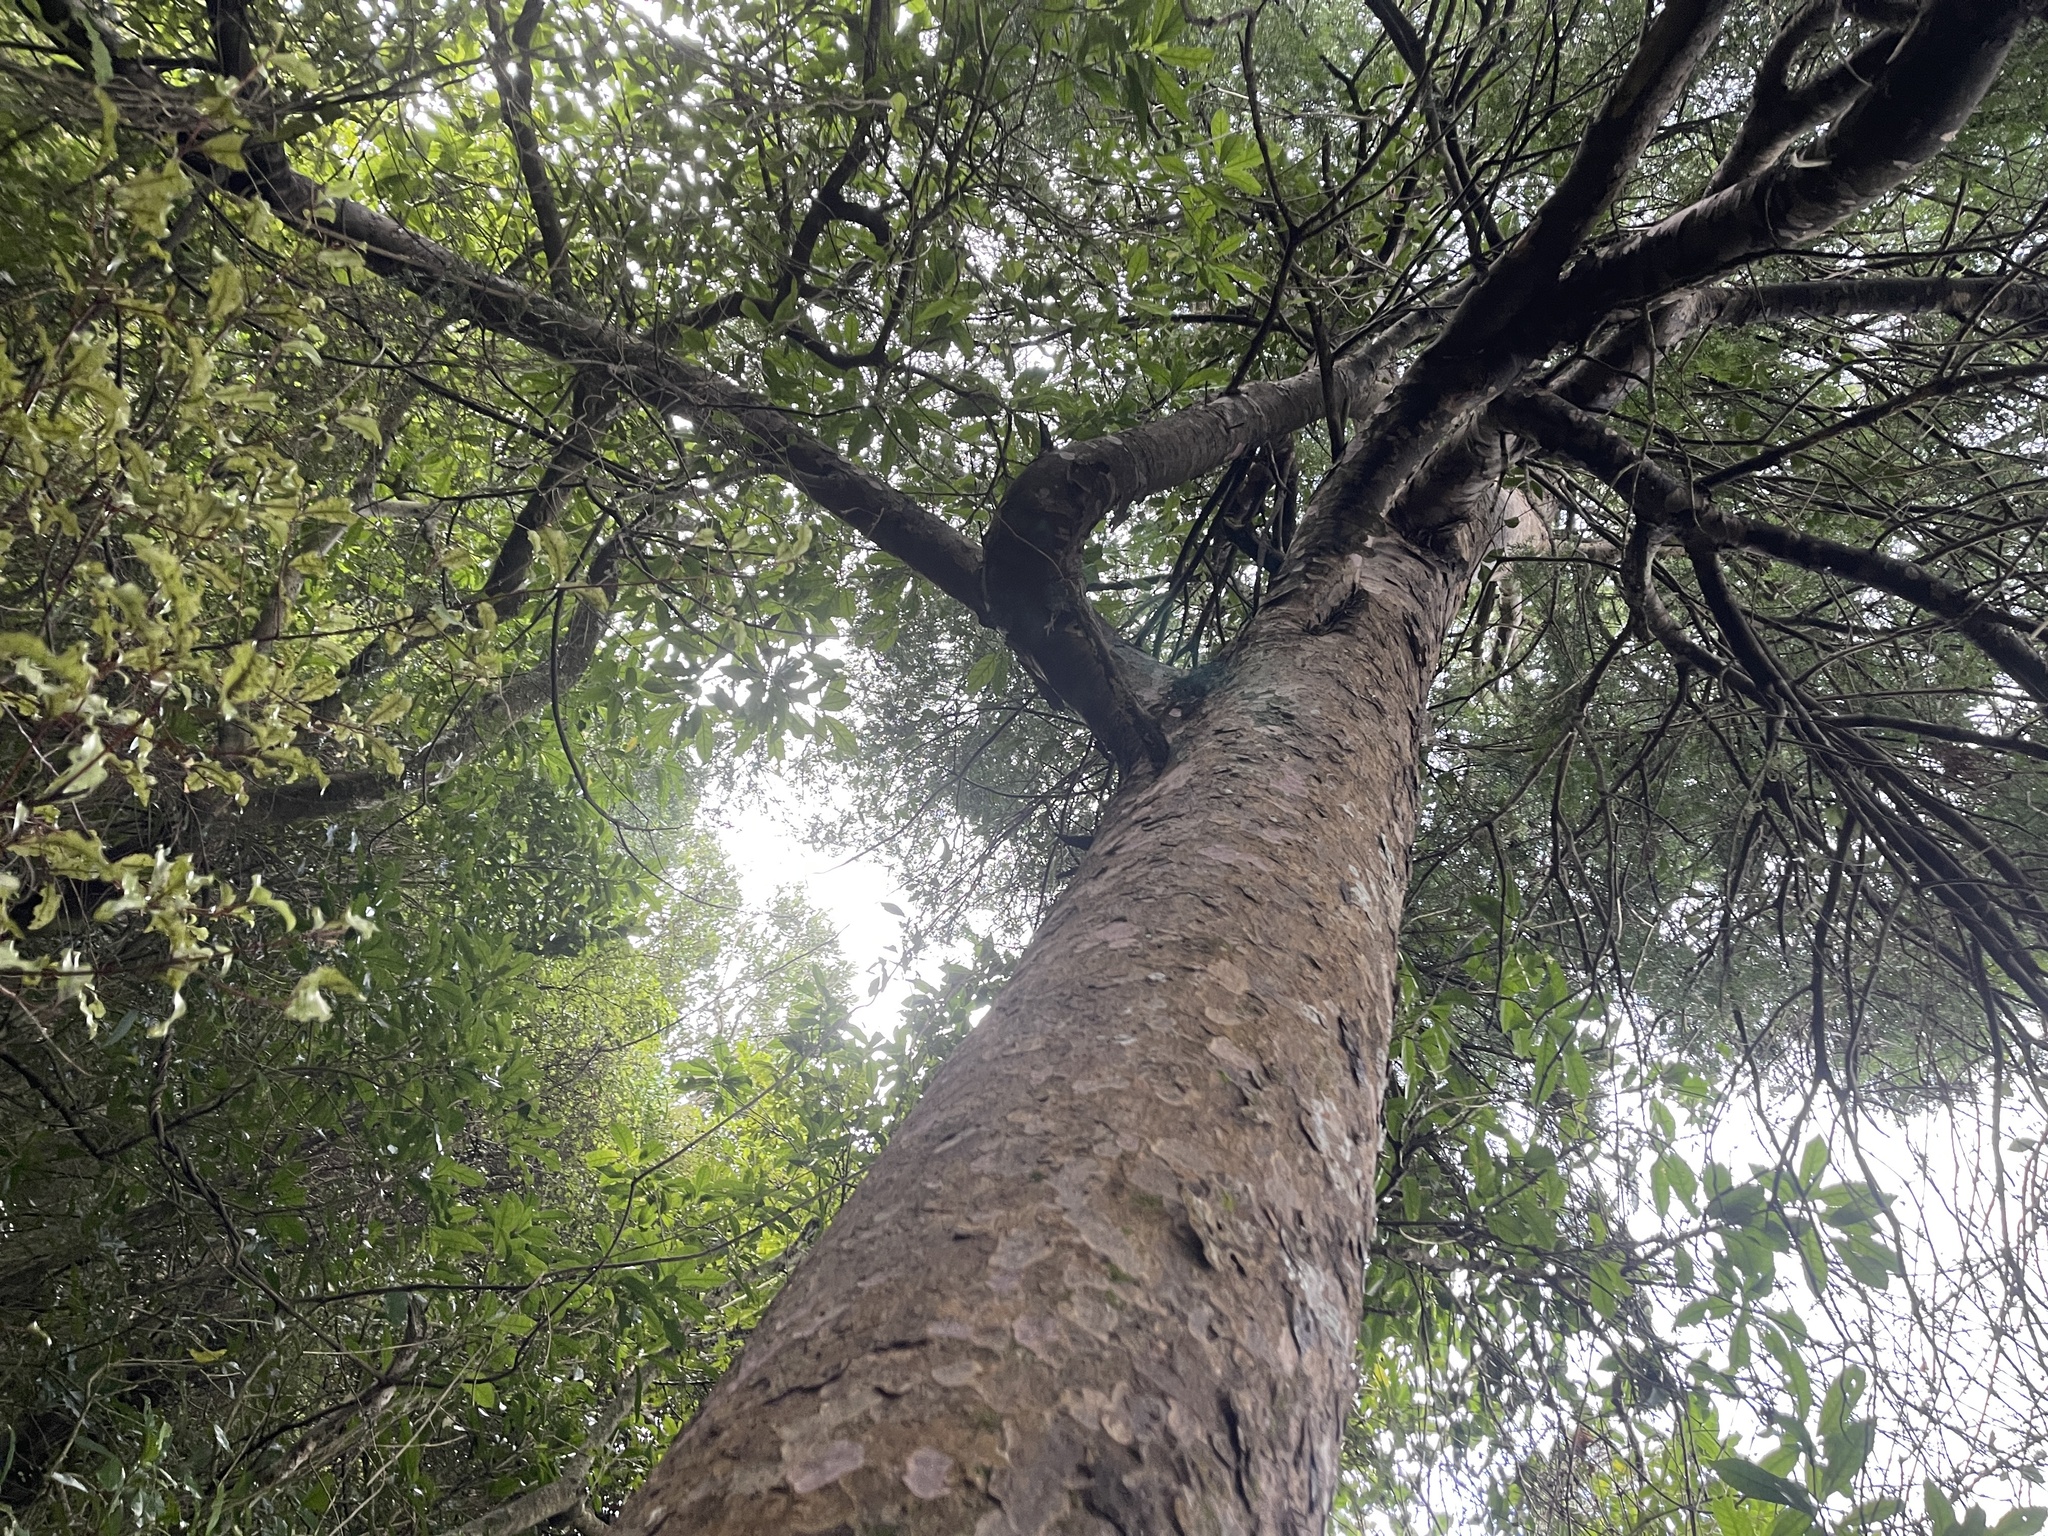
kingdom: Plantae
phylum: Tracheophyta
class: Pinopsida
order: Pinales
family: Podocarpaceae
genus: Prumnopitys
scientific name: Prumnopitys taxifolia
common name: Matai
